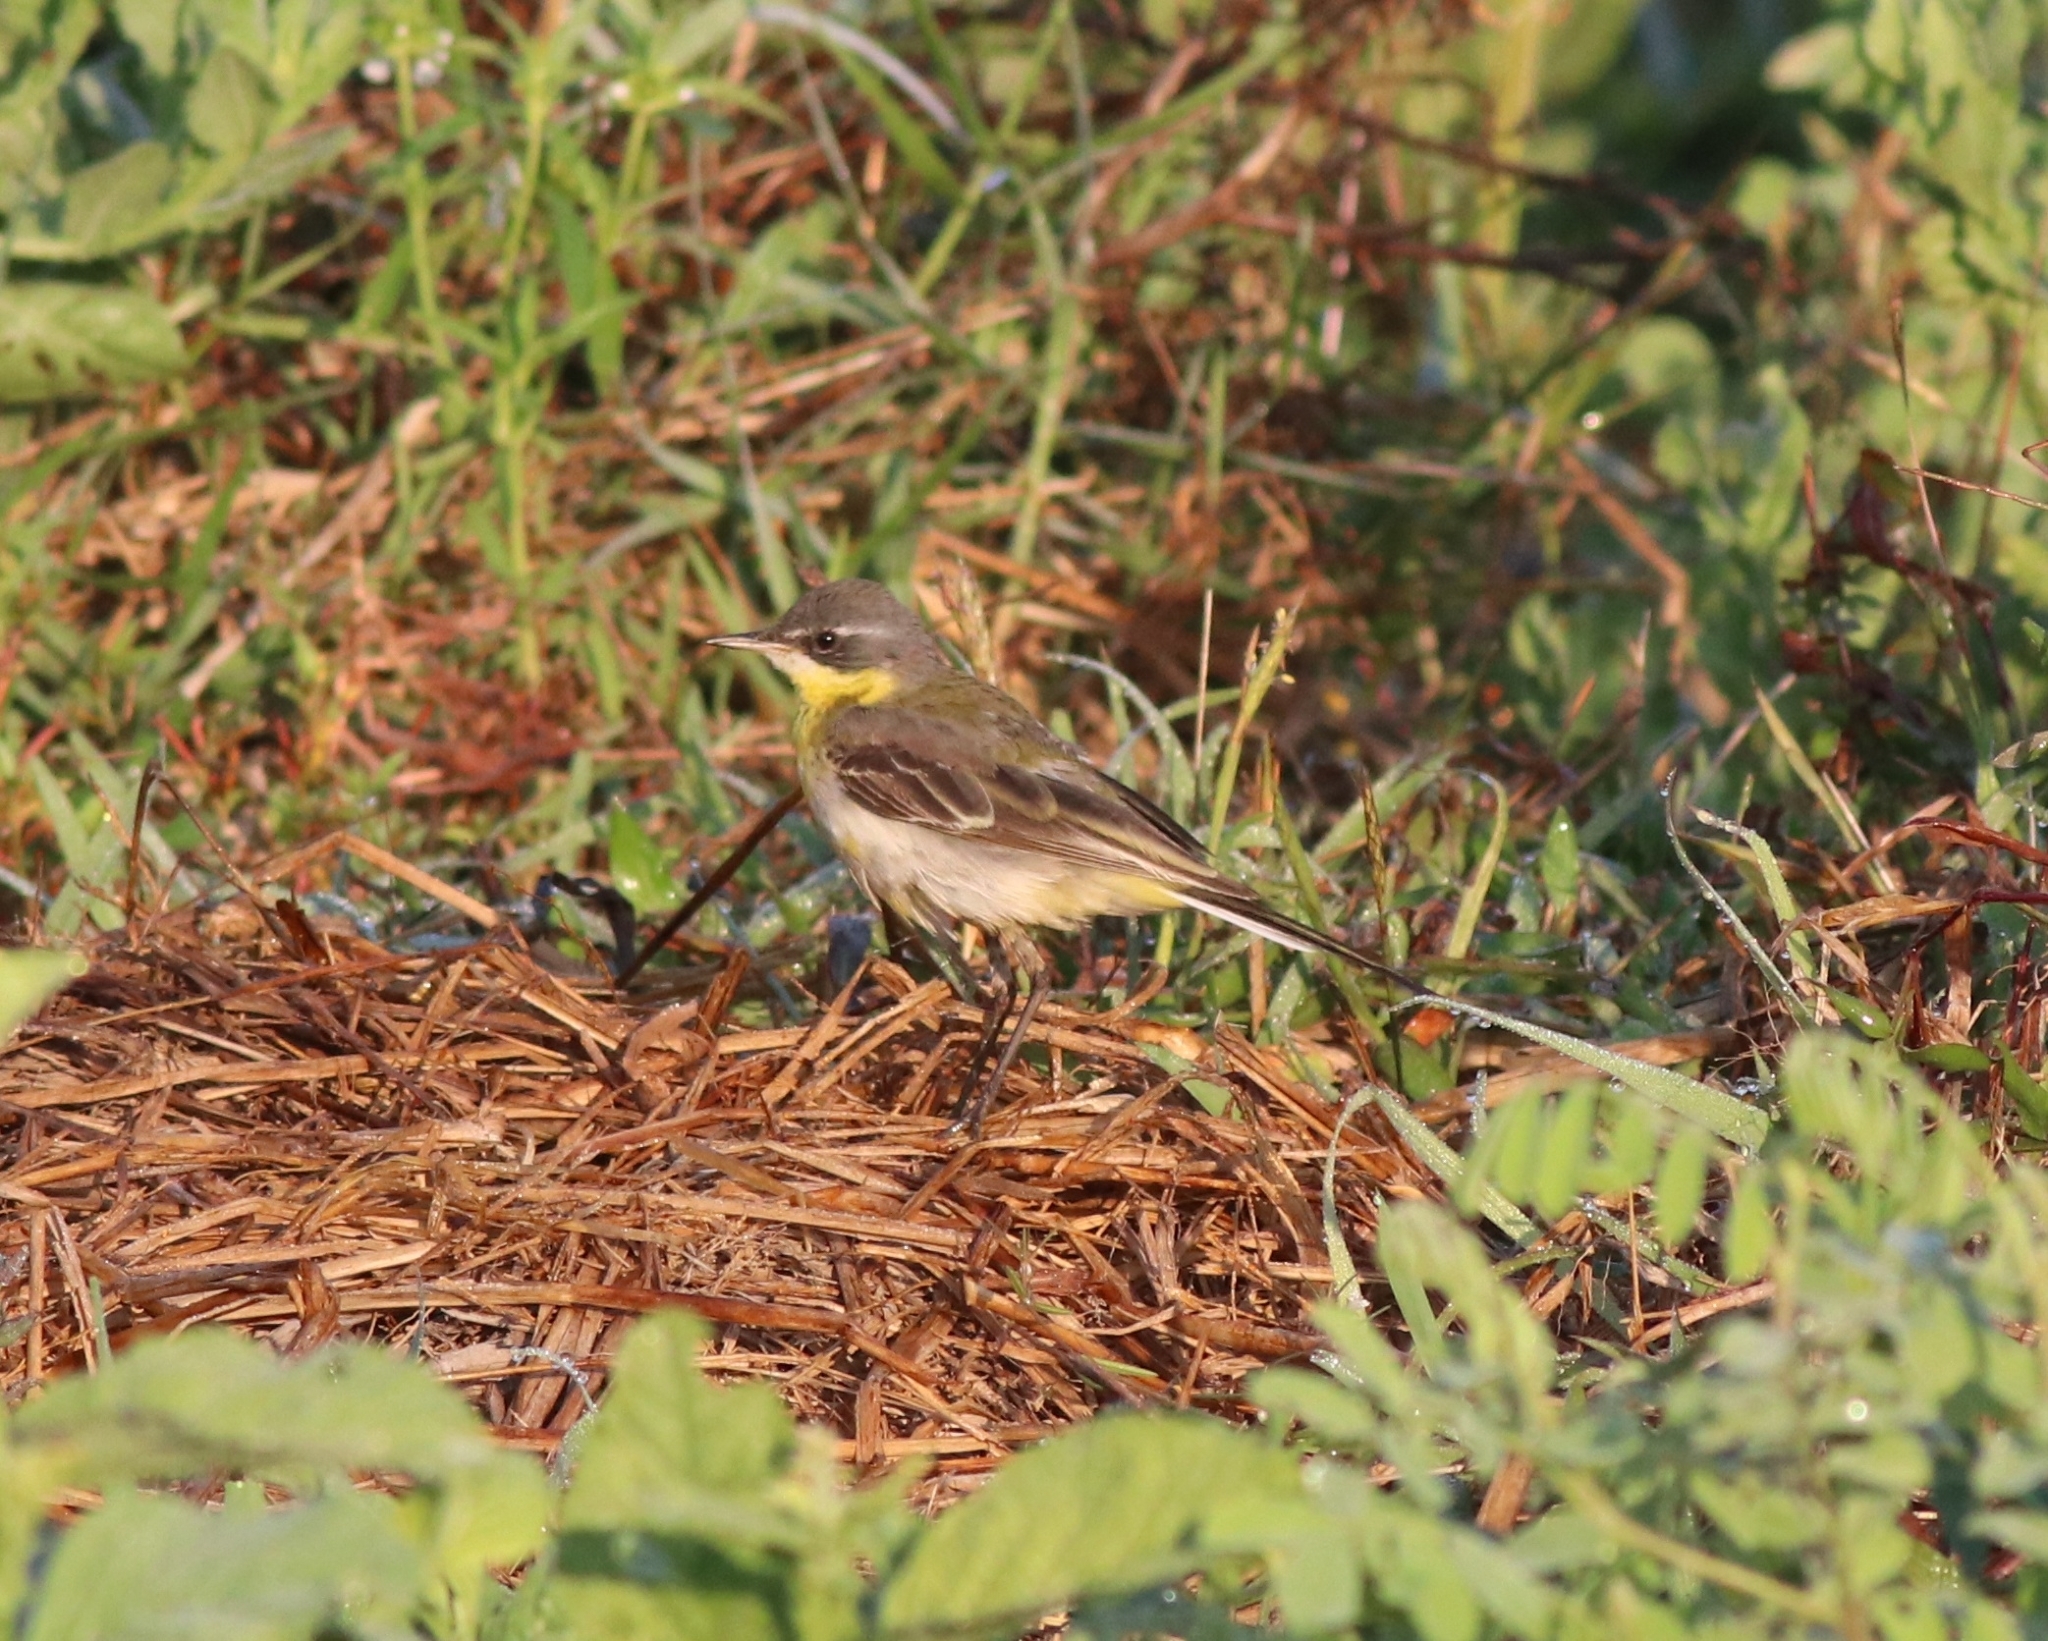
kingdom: Animalia
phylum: Chordata
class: Aves
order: Passeriformes
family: Motacillidae
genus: Motacilla
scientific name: Motacilla tschutschensis
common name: Eastern yellow wagtail
